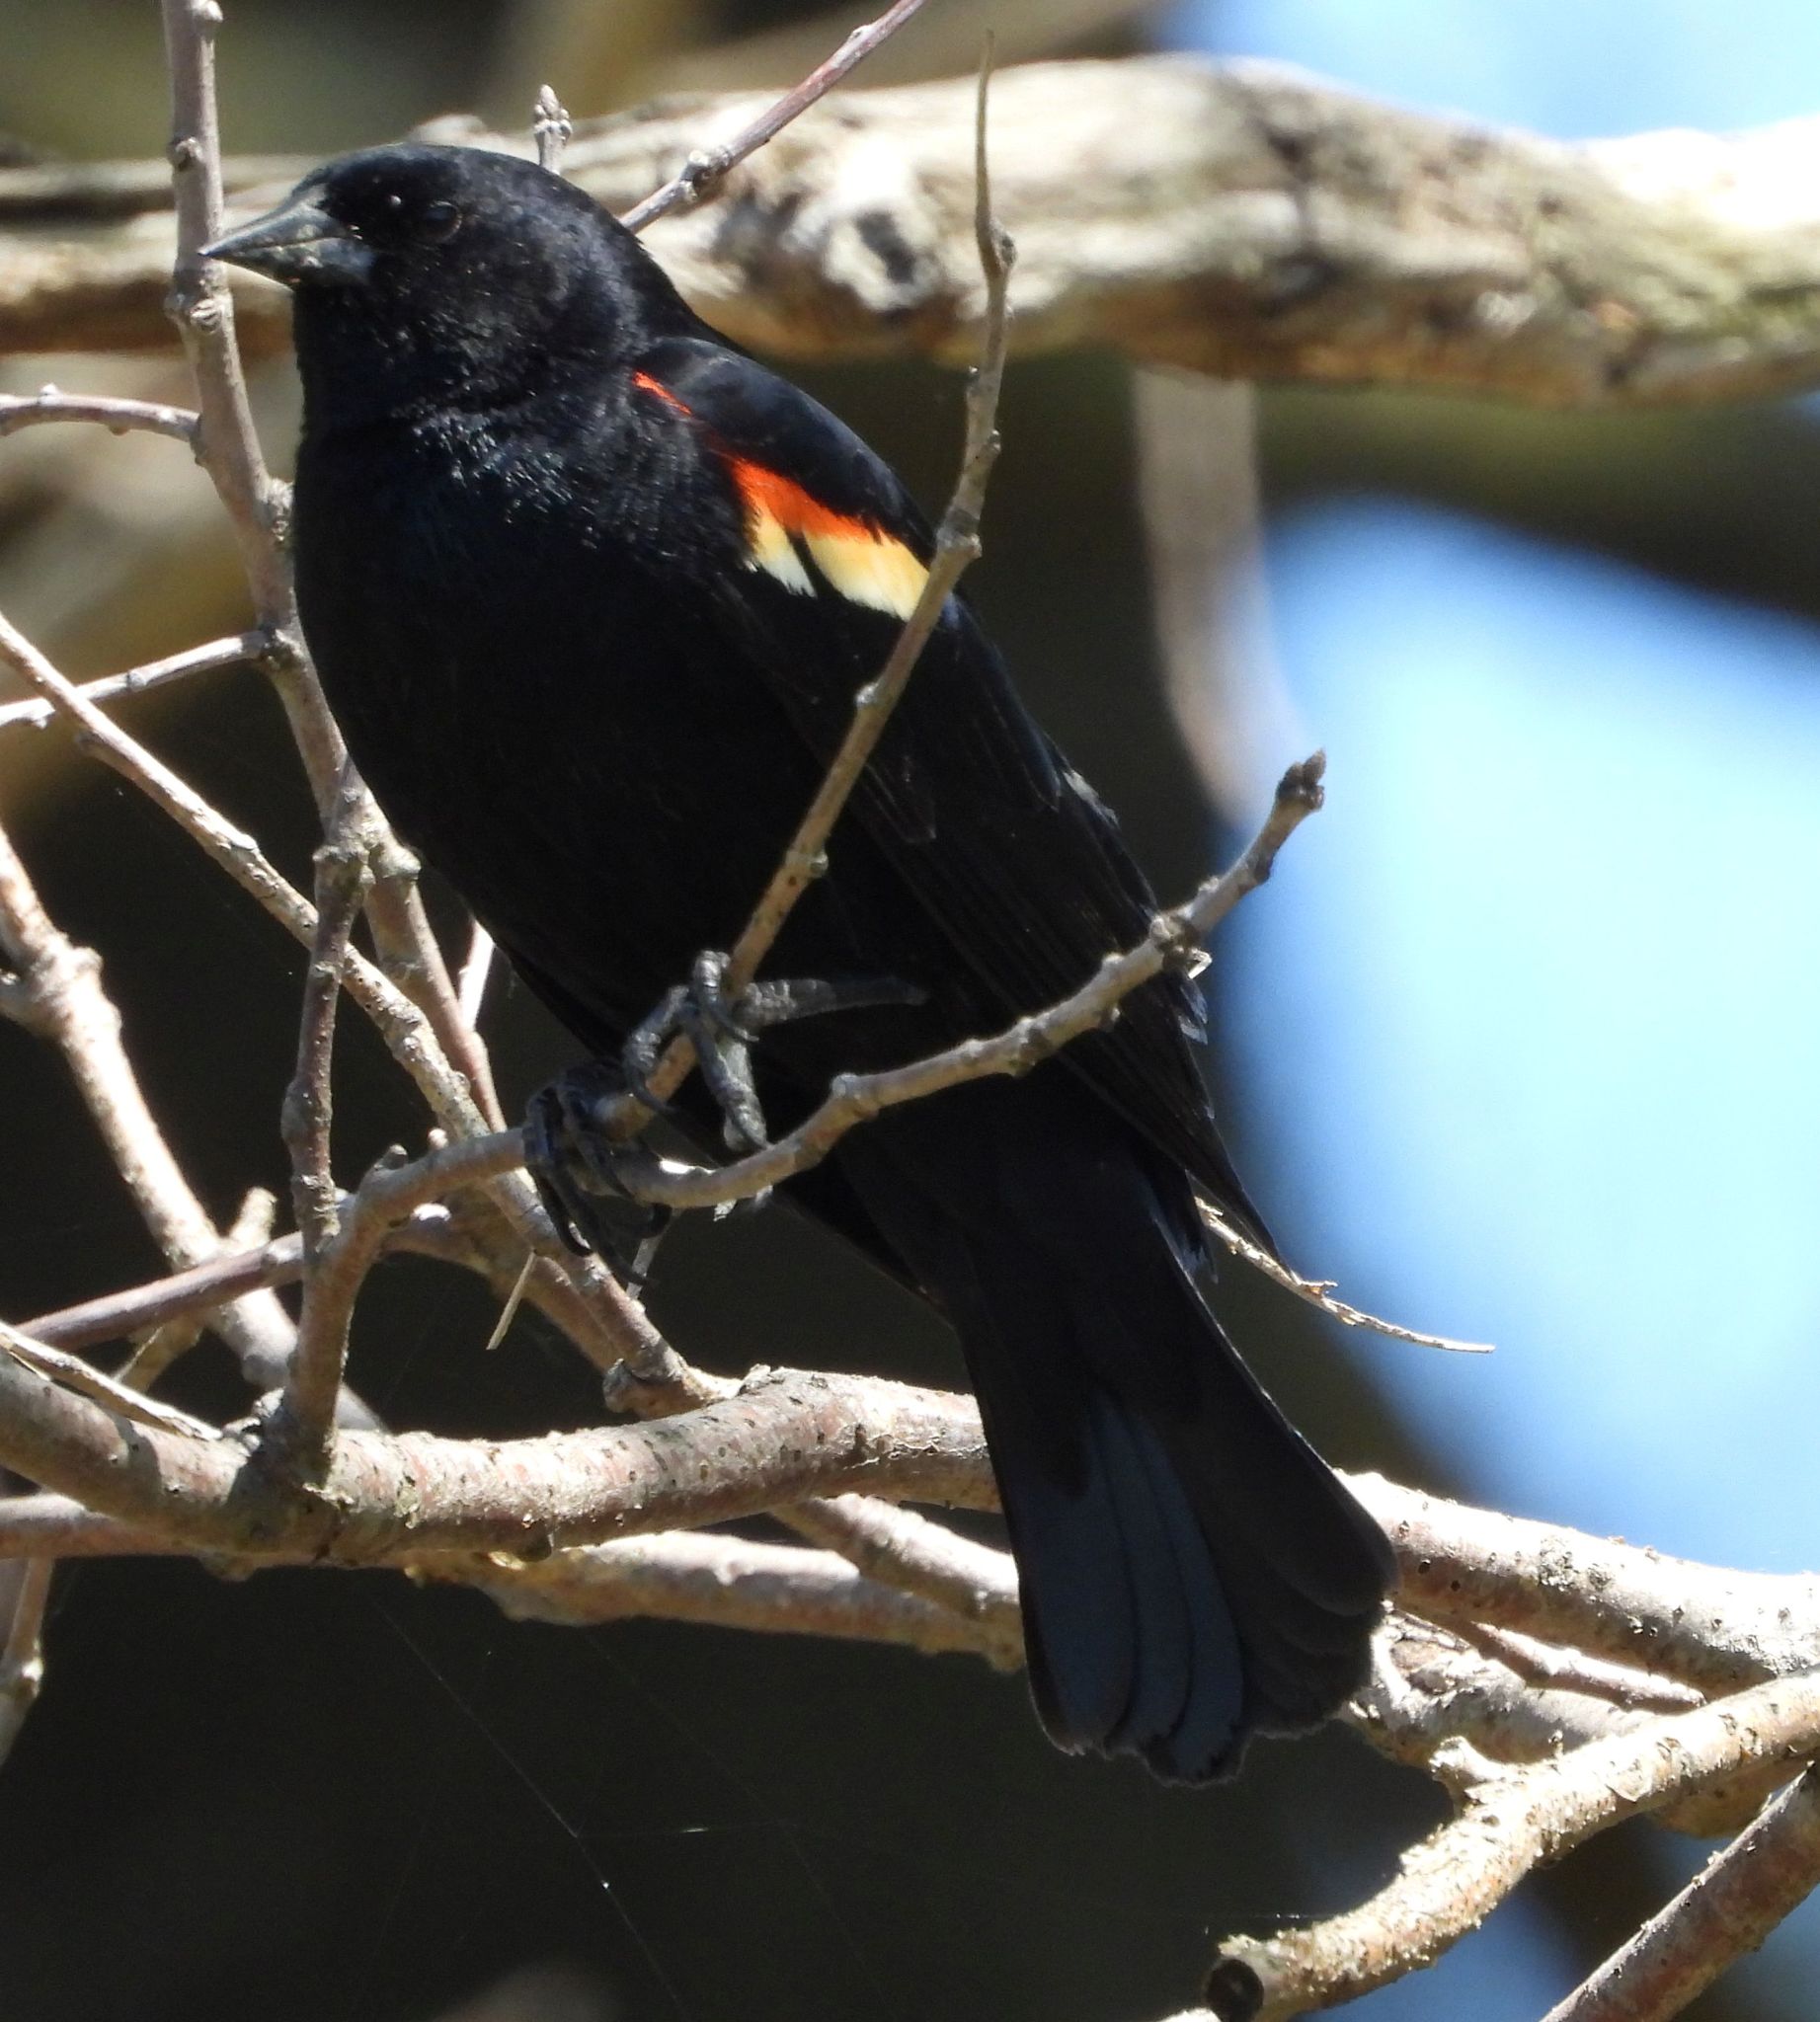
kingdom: Animalia
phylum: Chordata
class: Aves
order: Passeriformes
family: Icteridae
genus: Agelaius
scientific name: Agelaius phoeniceus
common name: Red-winged blackbird
